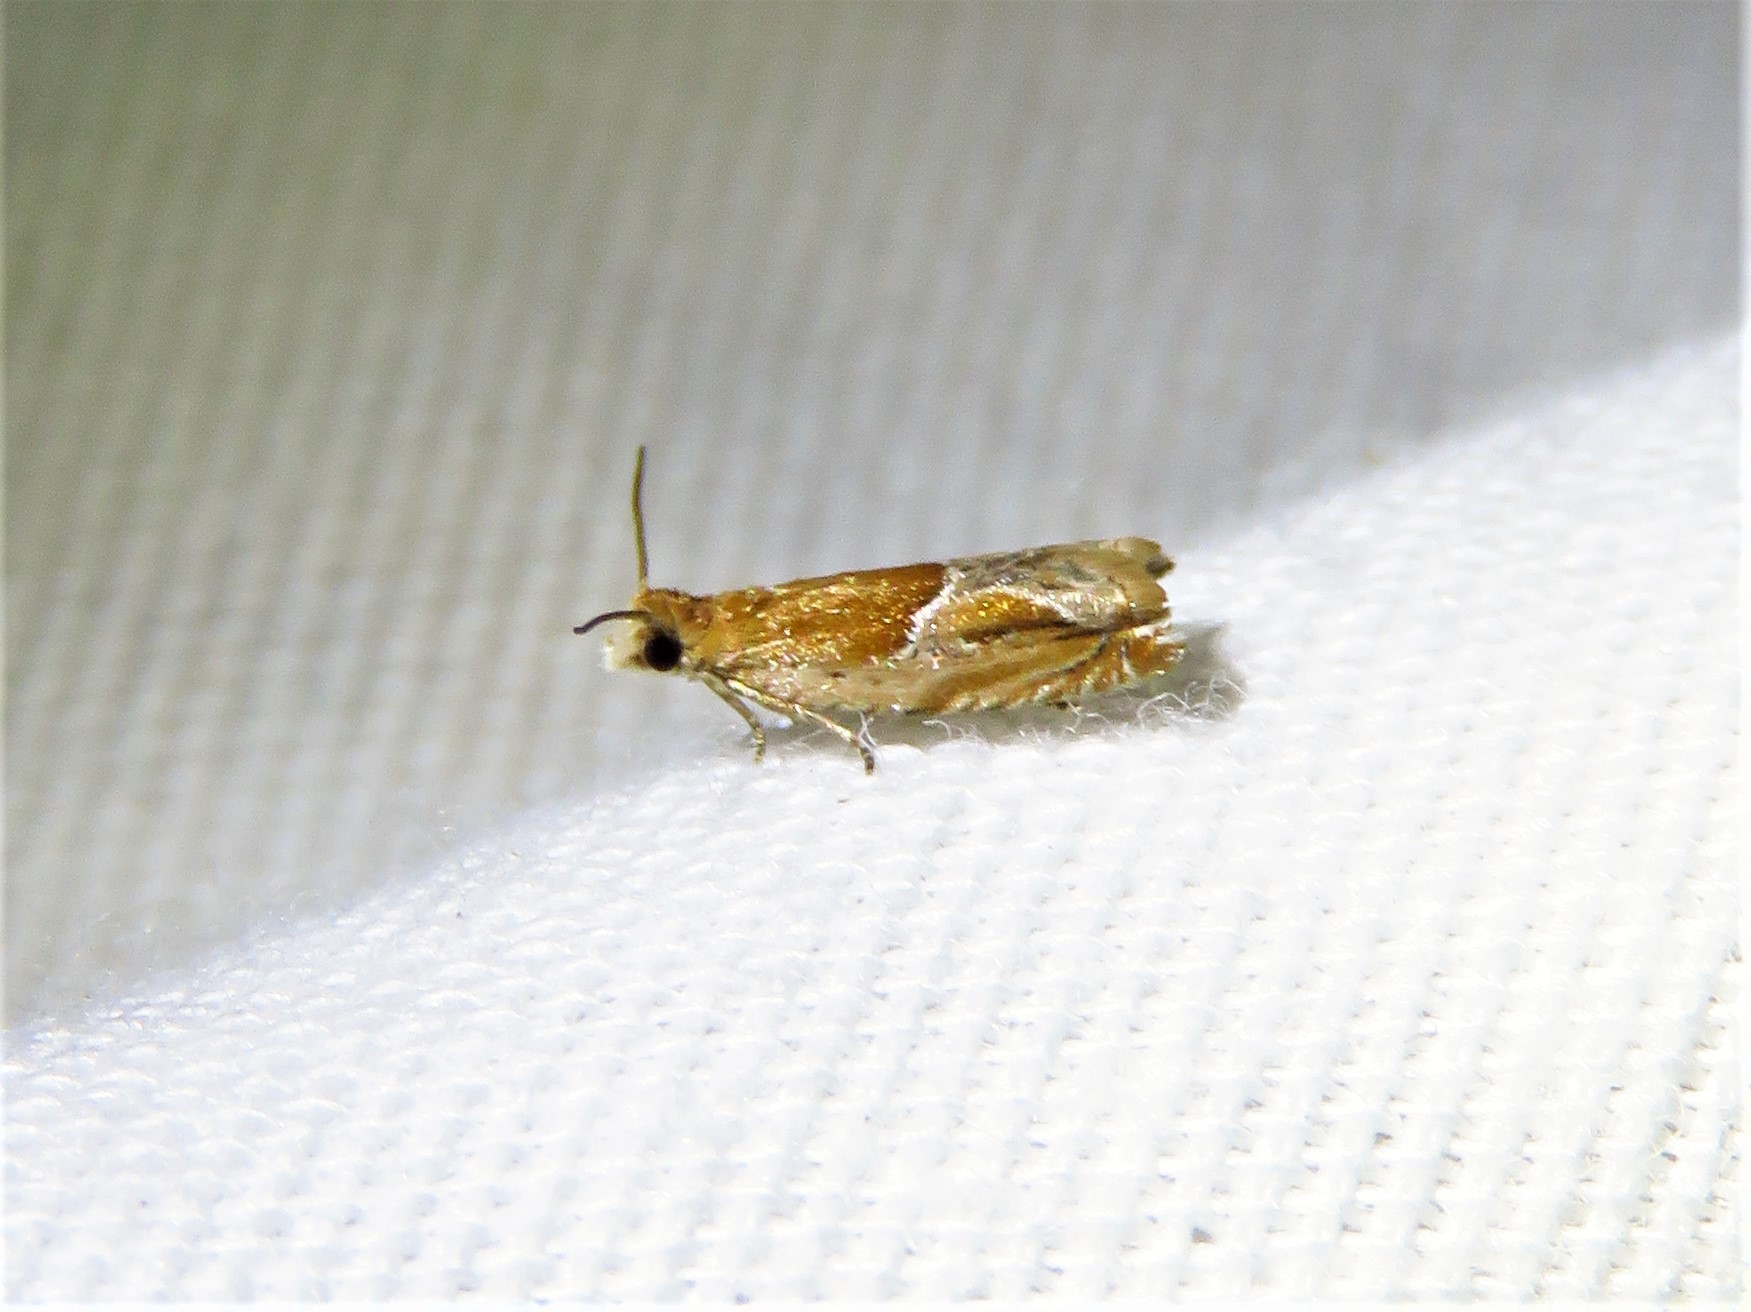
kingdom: Animalia
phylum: Arthropoda
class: Insecta
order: Lepidoptera
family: Tortricidae
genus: Ancylis
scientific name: Ancylis comptana
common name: Little roller
